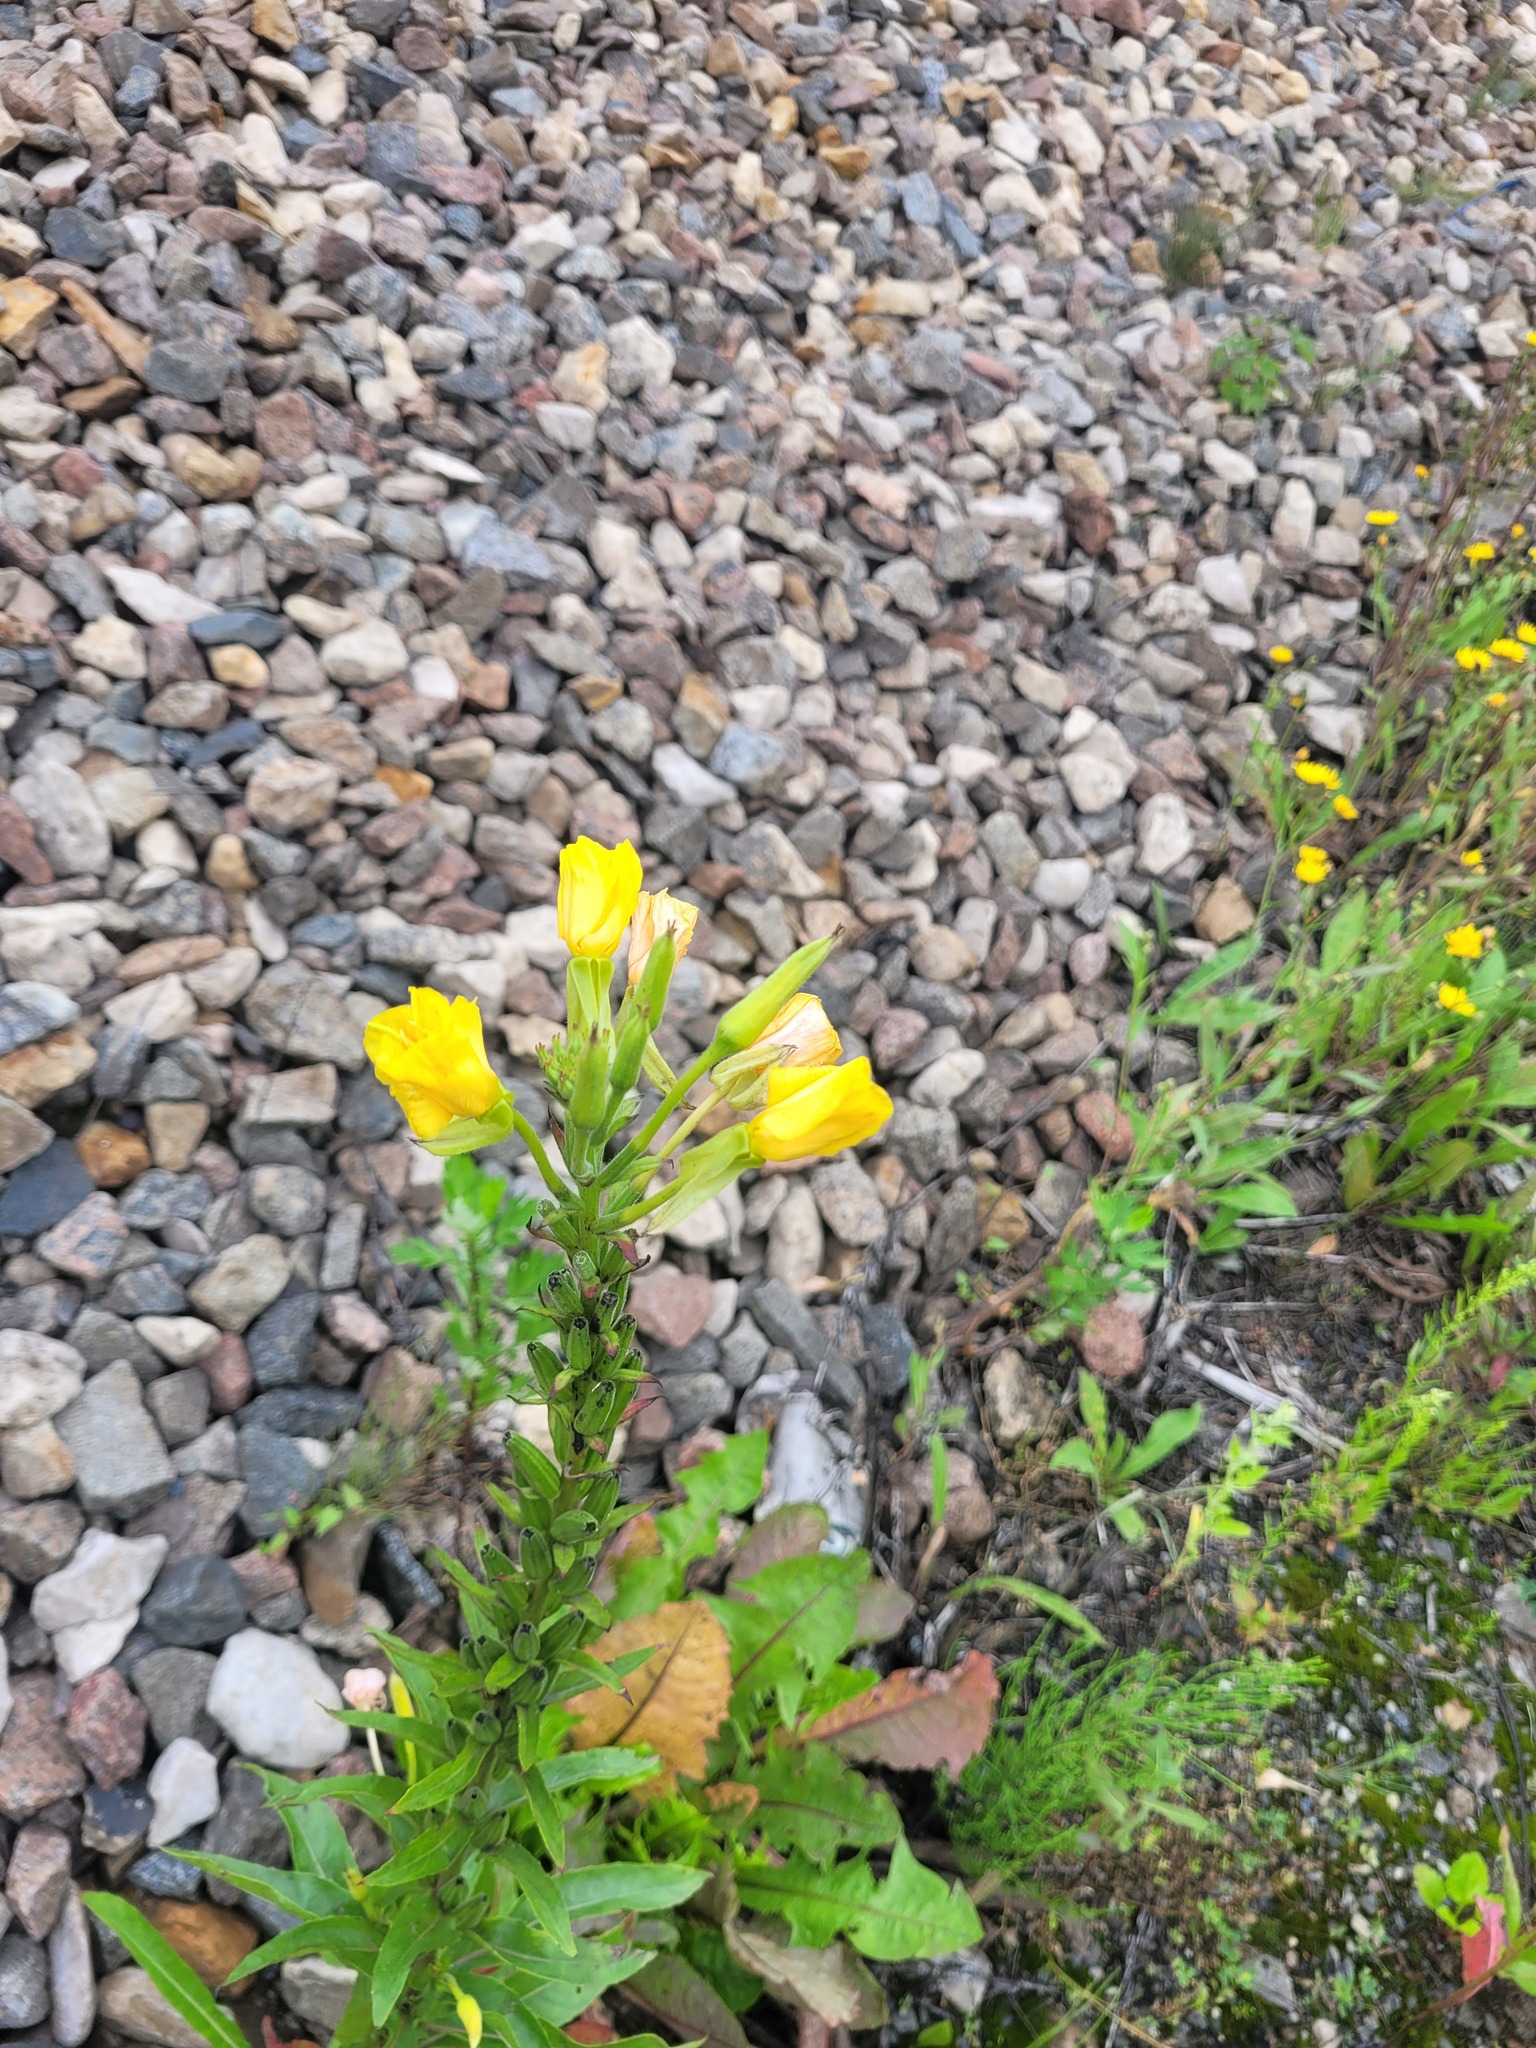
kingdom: Plantae
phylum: Tracheophyta
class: Magnoliopsida
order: Myrtales
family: Onagraceae
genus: Oenothera
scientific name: Oenothera biennis
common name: Common evening-primrose
